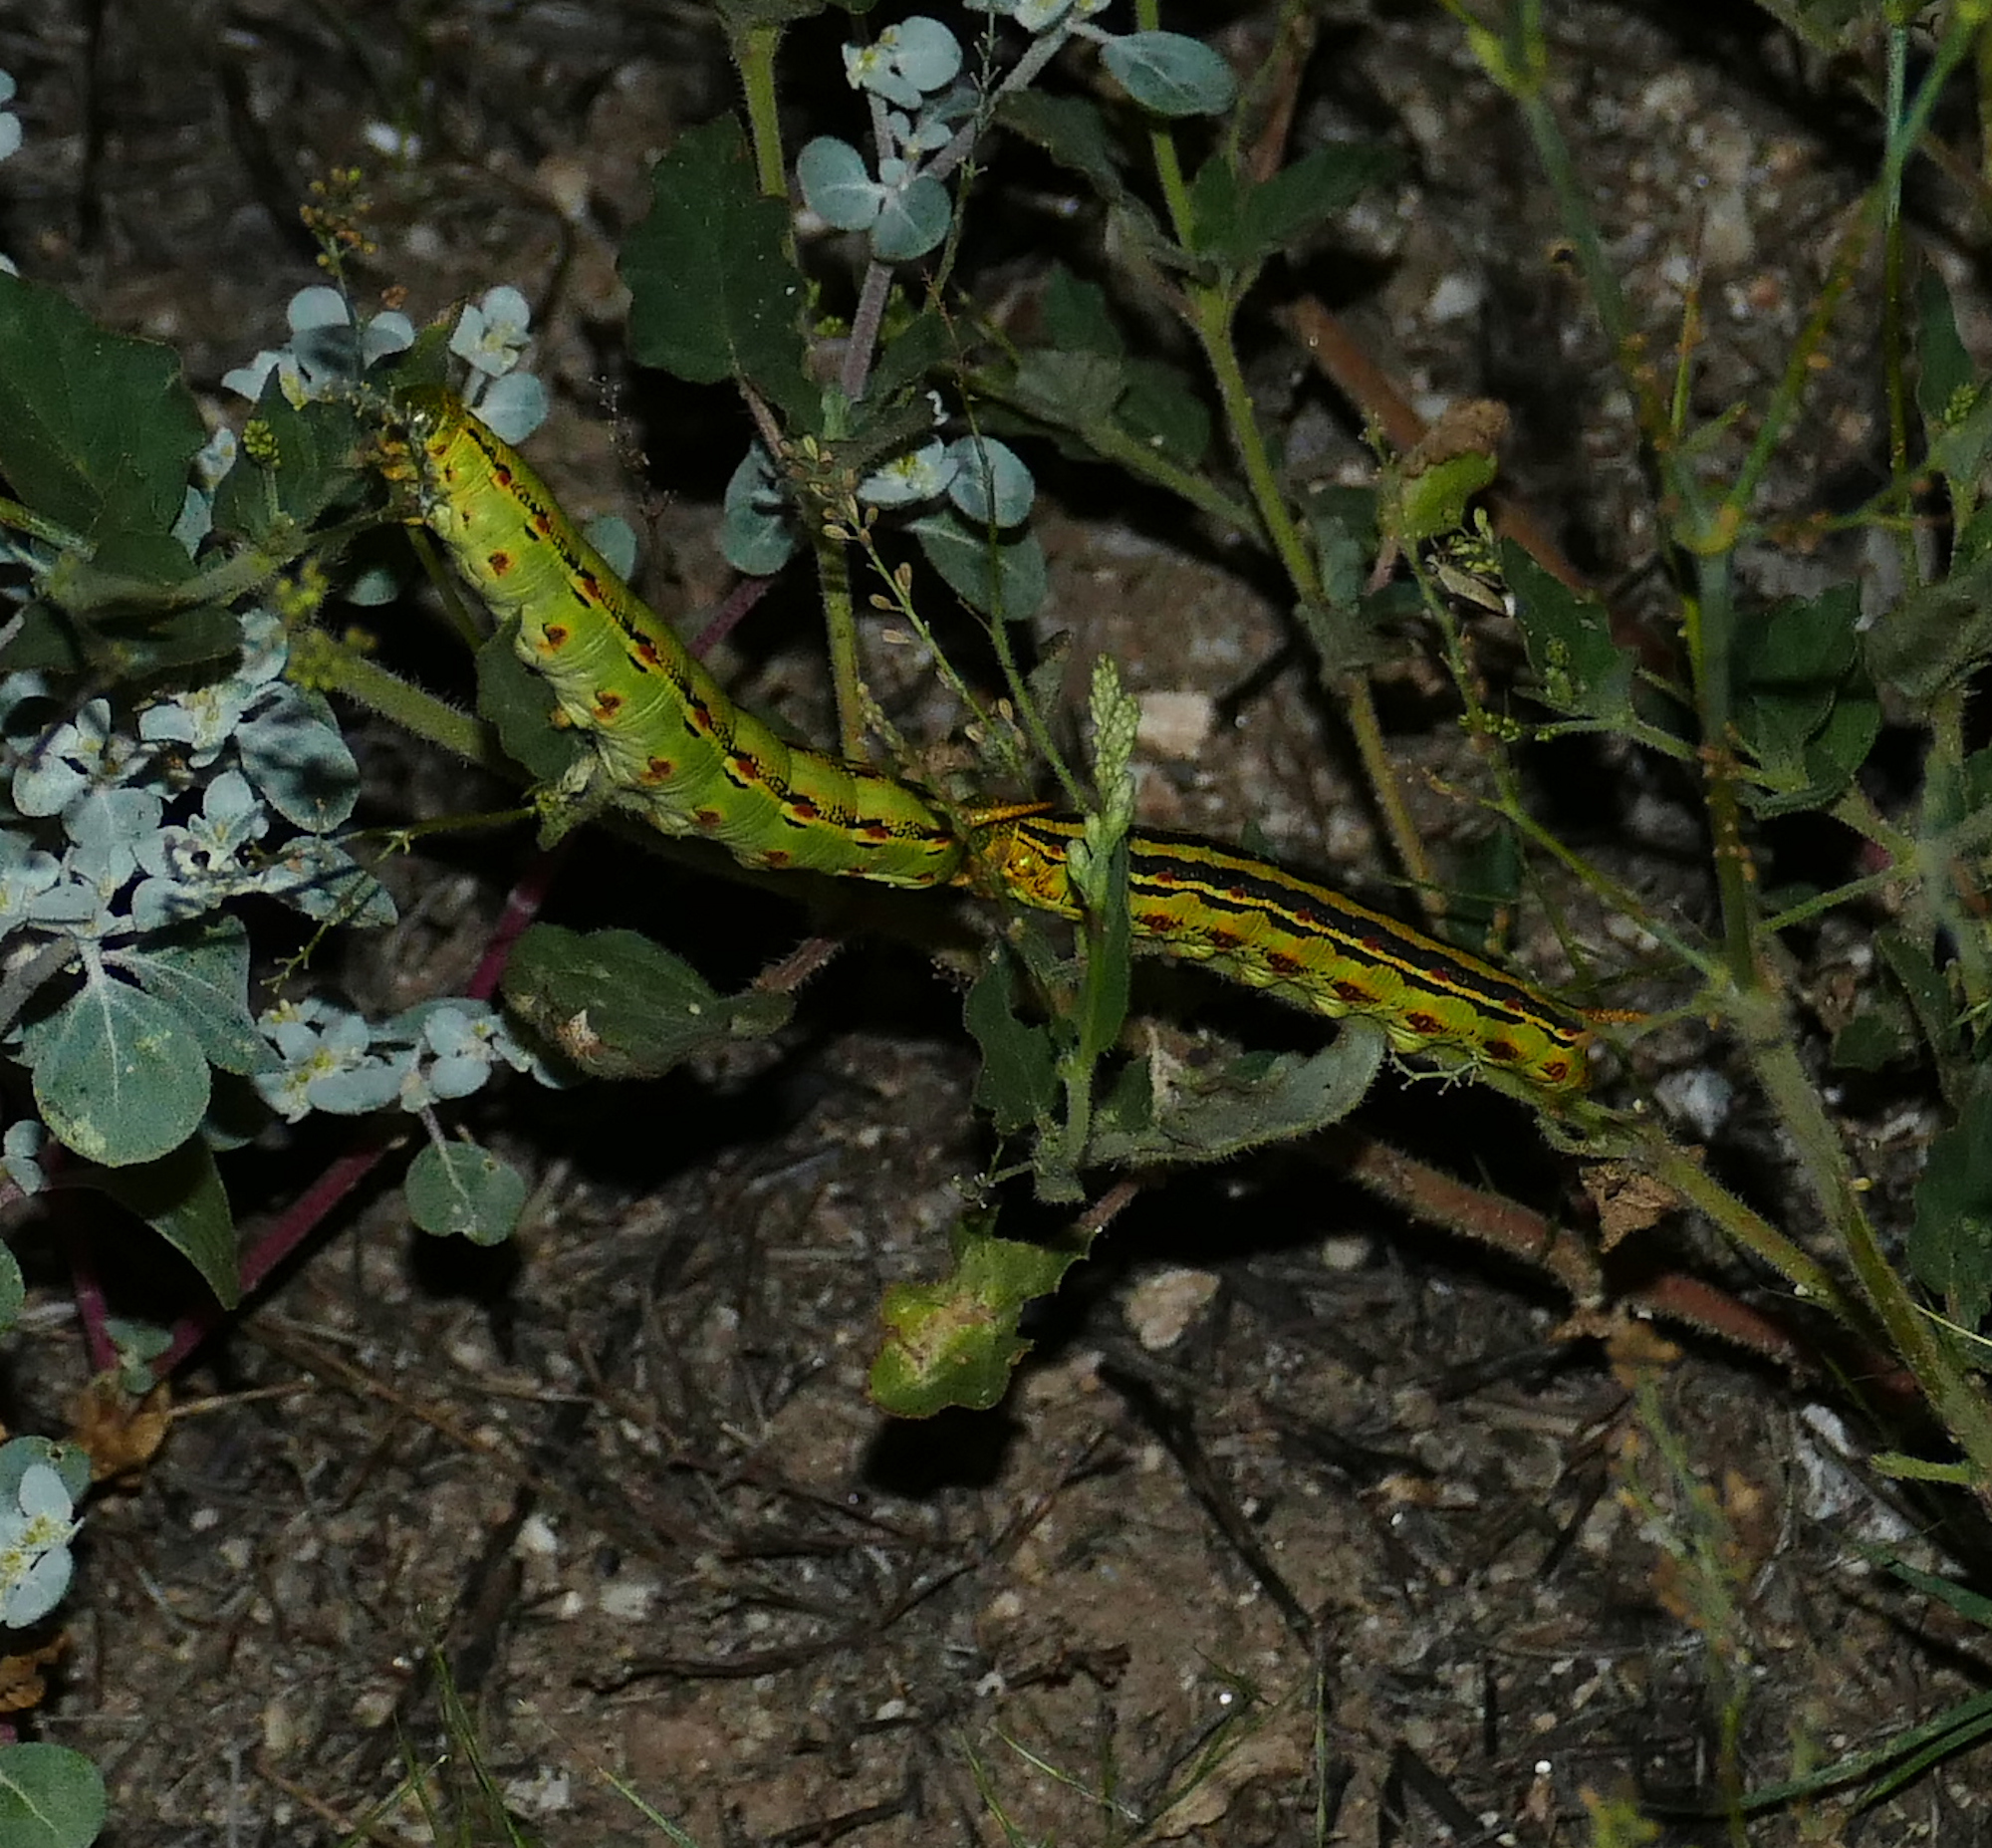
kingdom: Animalia
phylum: Arthropoda
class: Insecta
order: Lepidoptera
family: Sphingidae
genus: Hyles
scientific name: Hyles lineata
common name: White-lined sphinx
